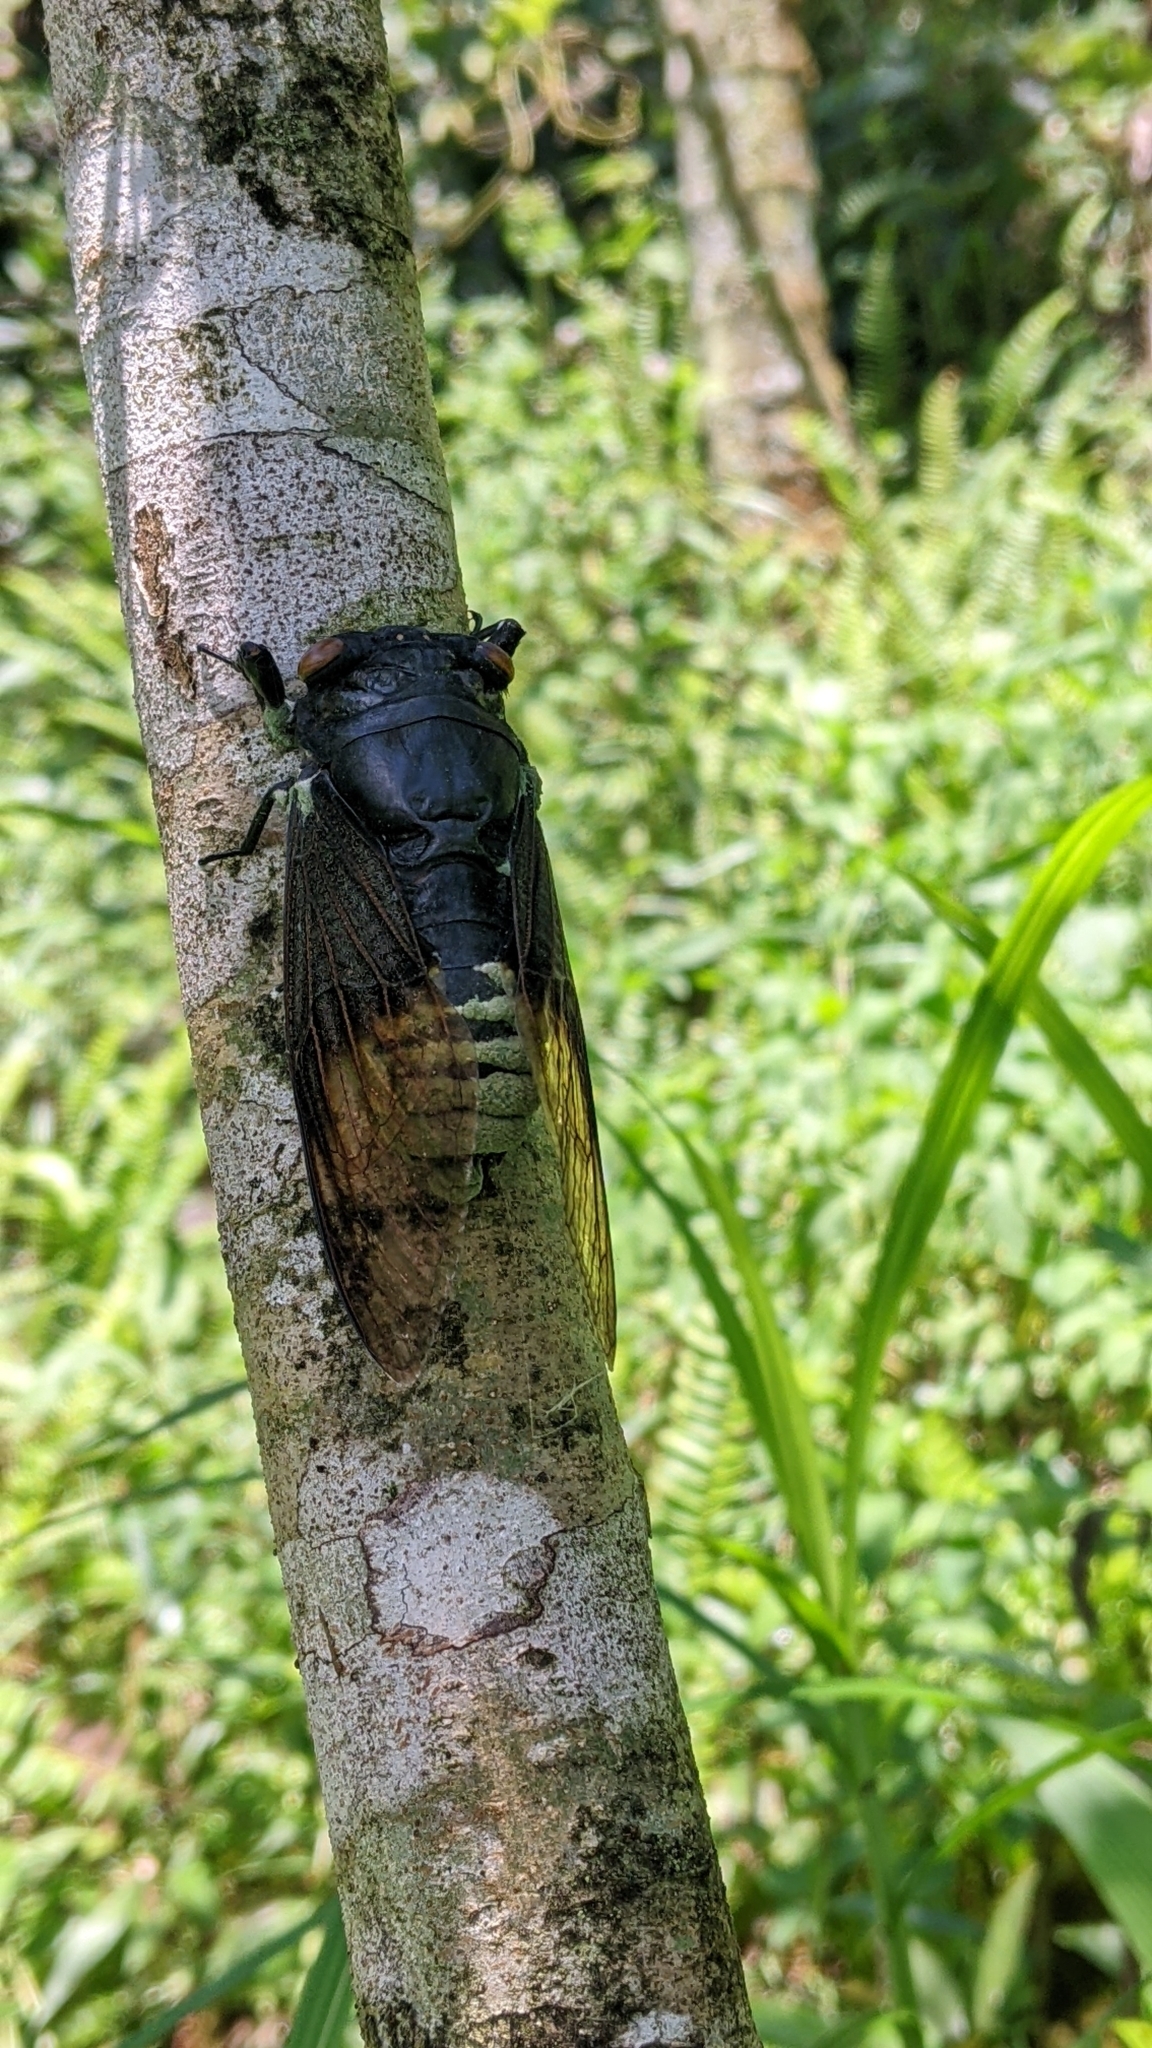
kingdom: Animalia
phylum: Arthropoda
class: Insecta
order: Hemiptera
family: Cicadidae
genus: Cryptotympana
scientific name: Cryptotympana holsti
